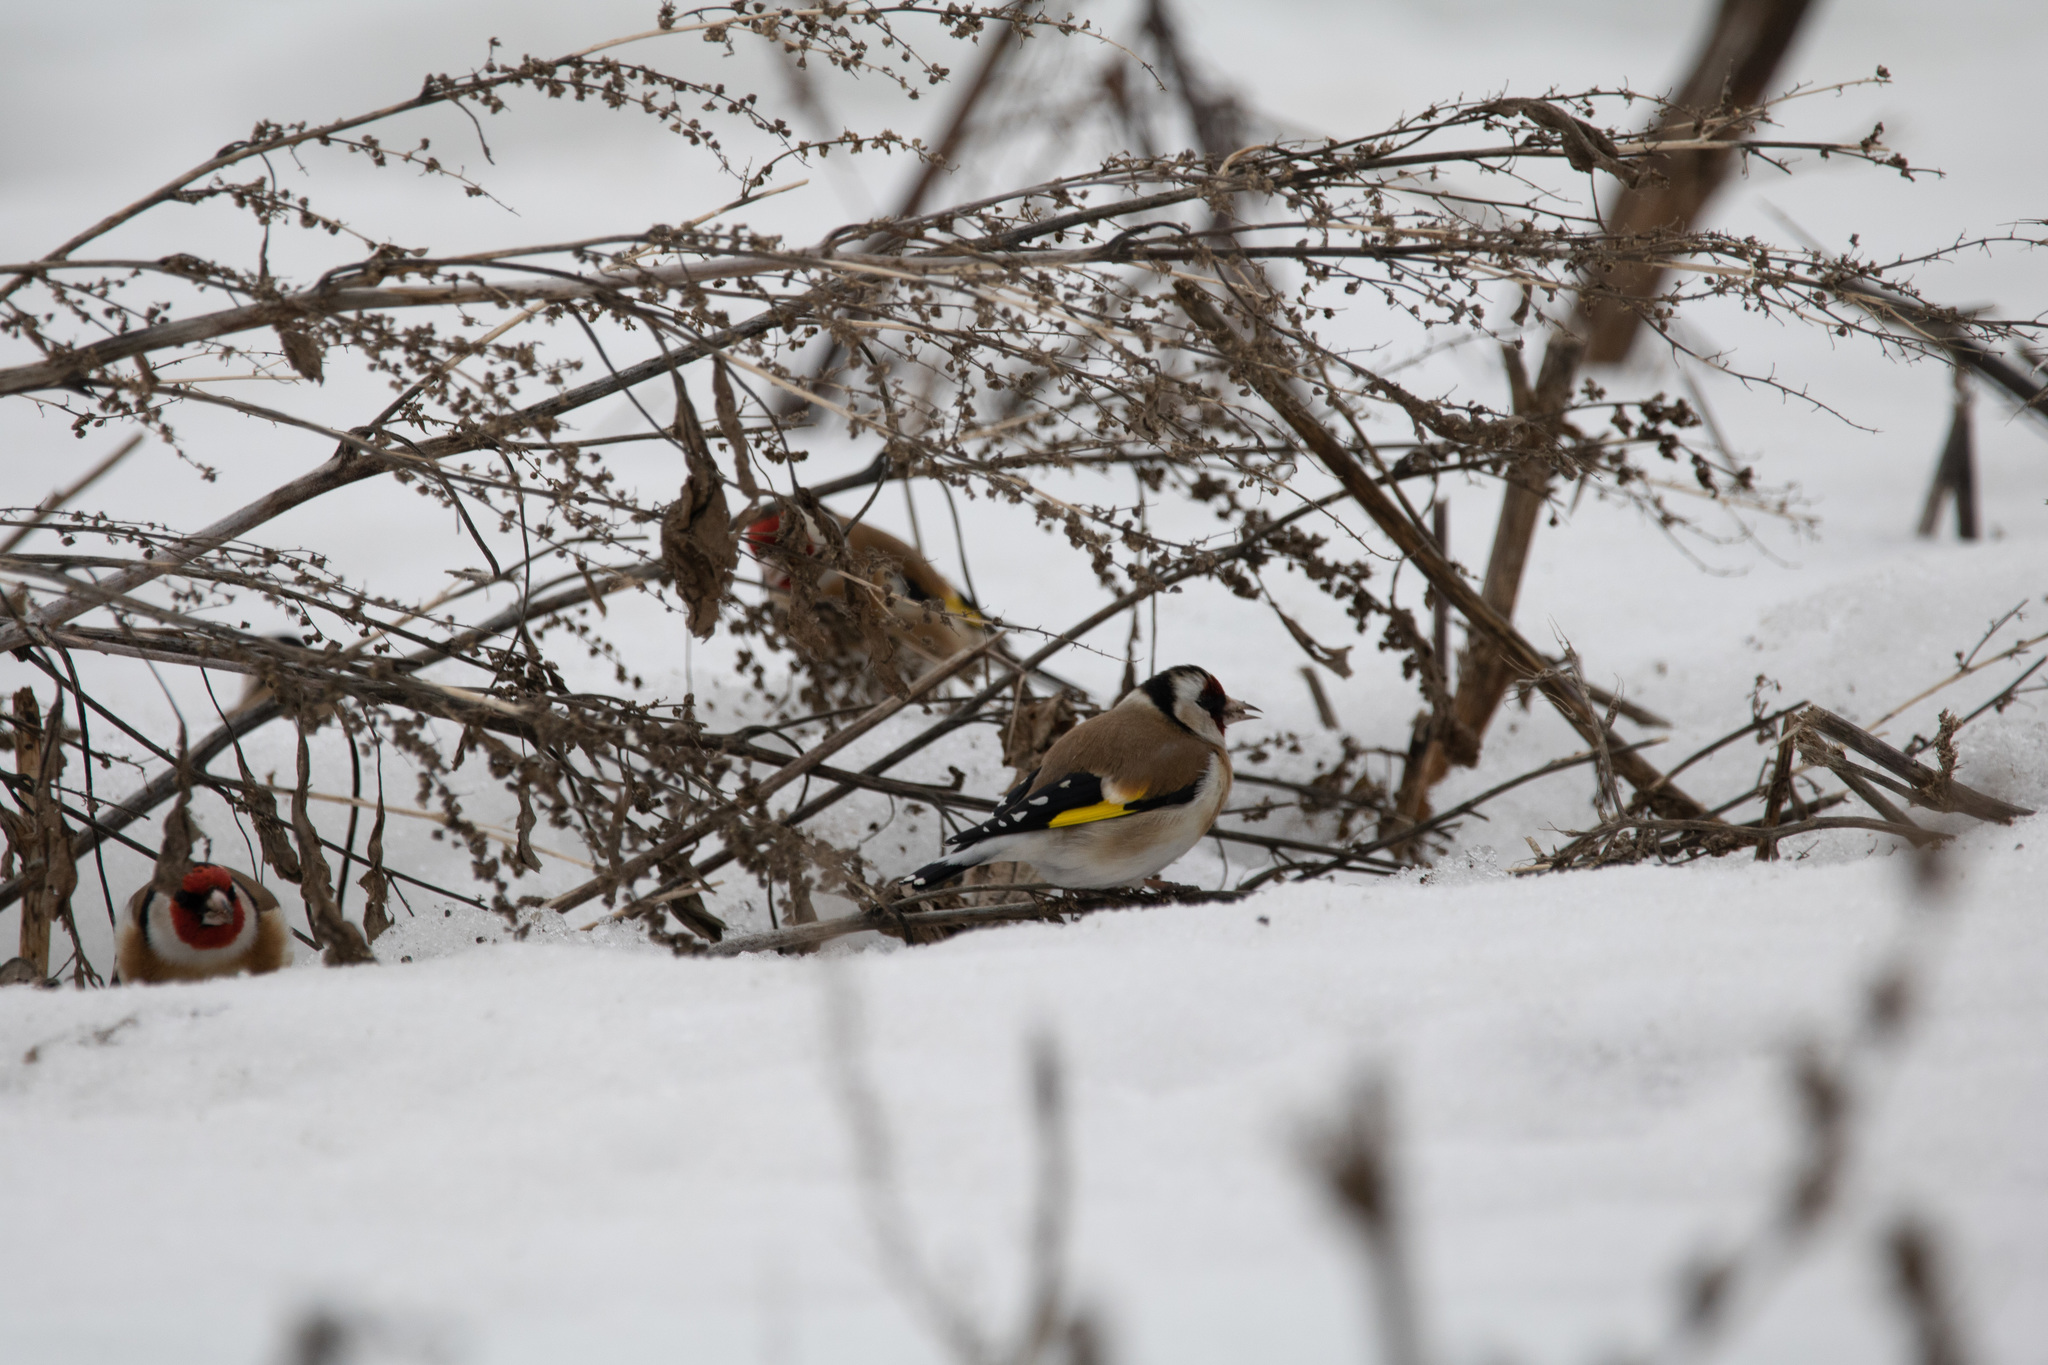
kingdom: Animalia
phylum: Chordata
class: Aves
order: Passeriformes
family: Fringillidae
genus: Carduelis
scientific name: Carduelis carduelis
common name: European goldfinch
